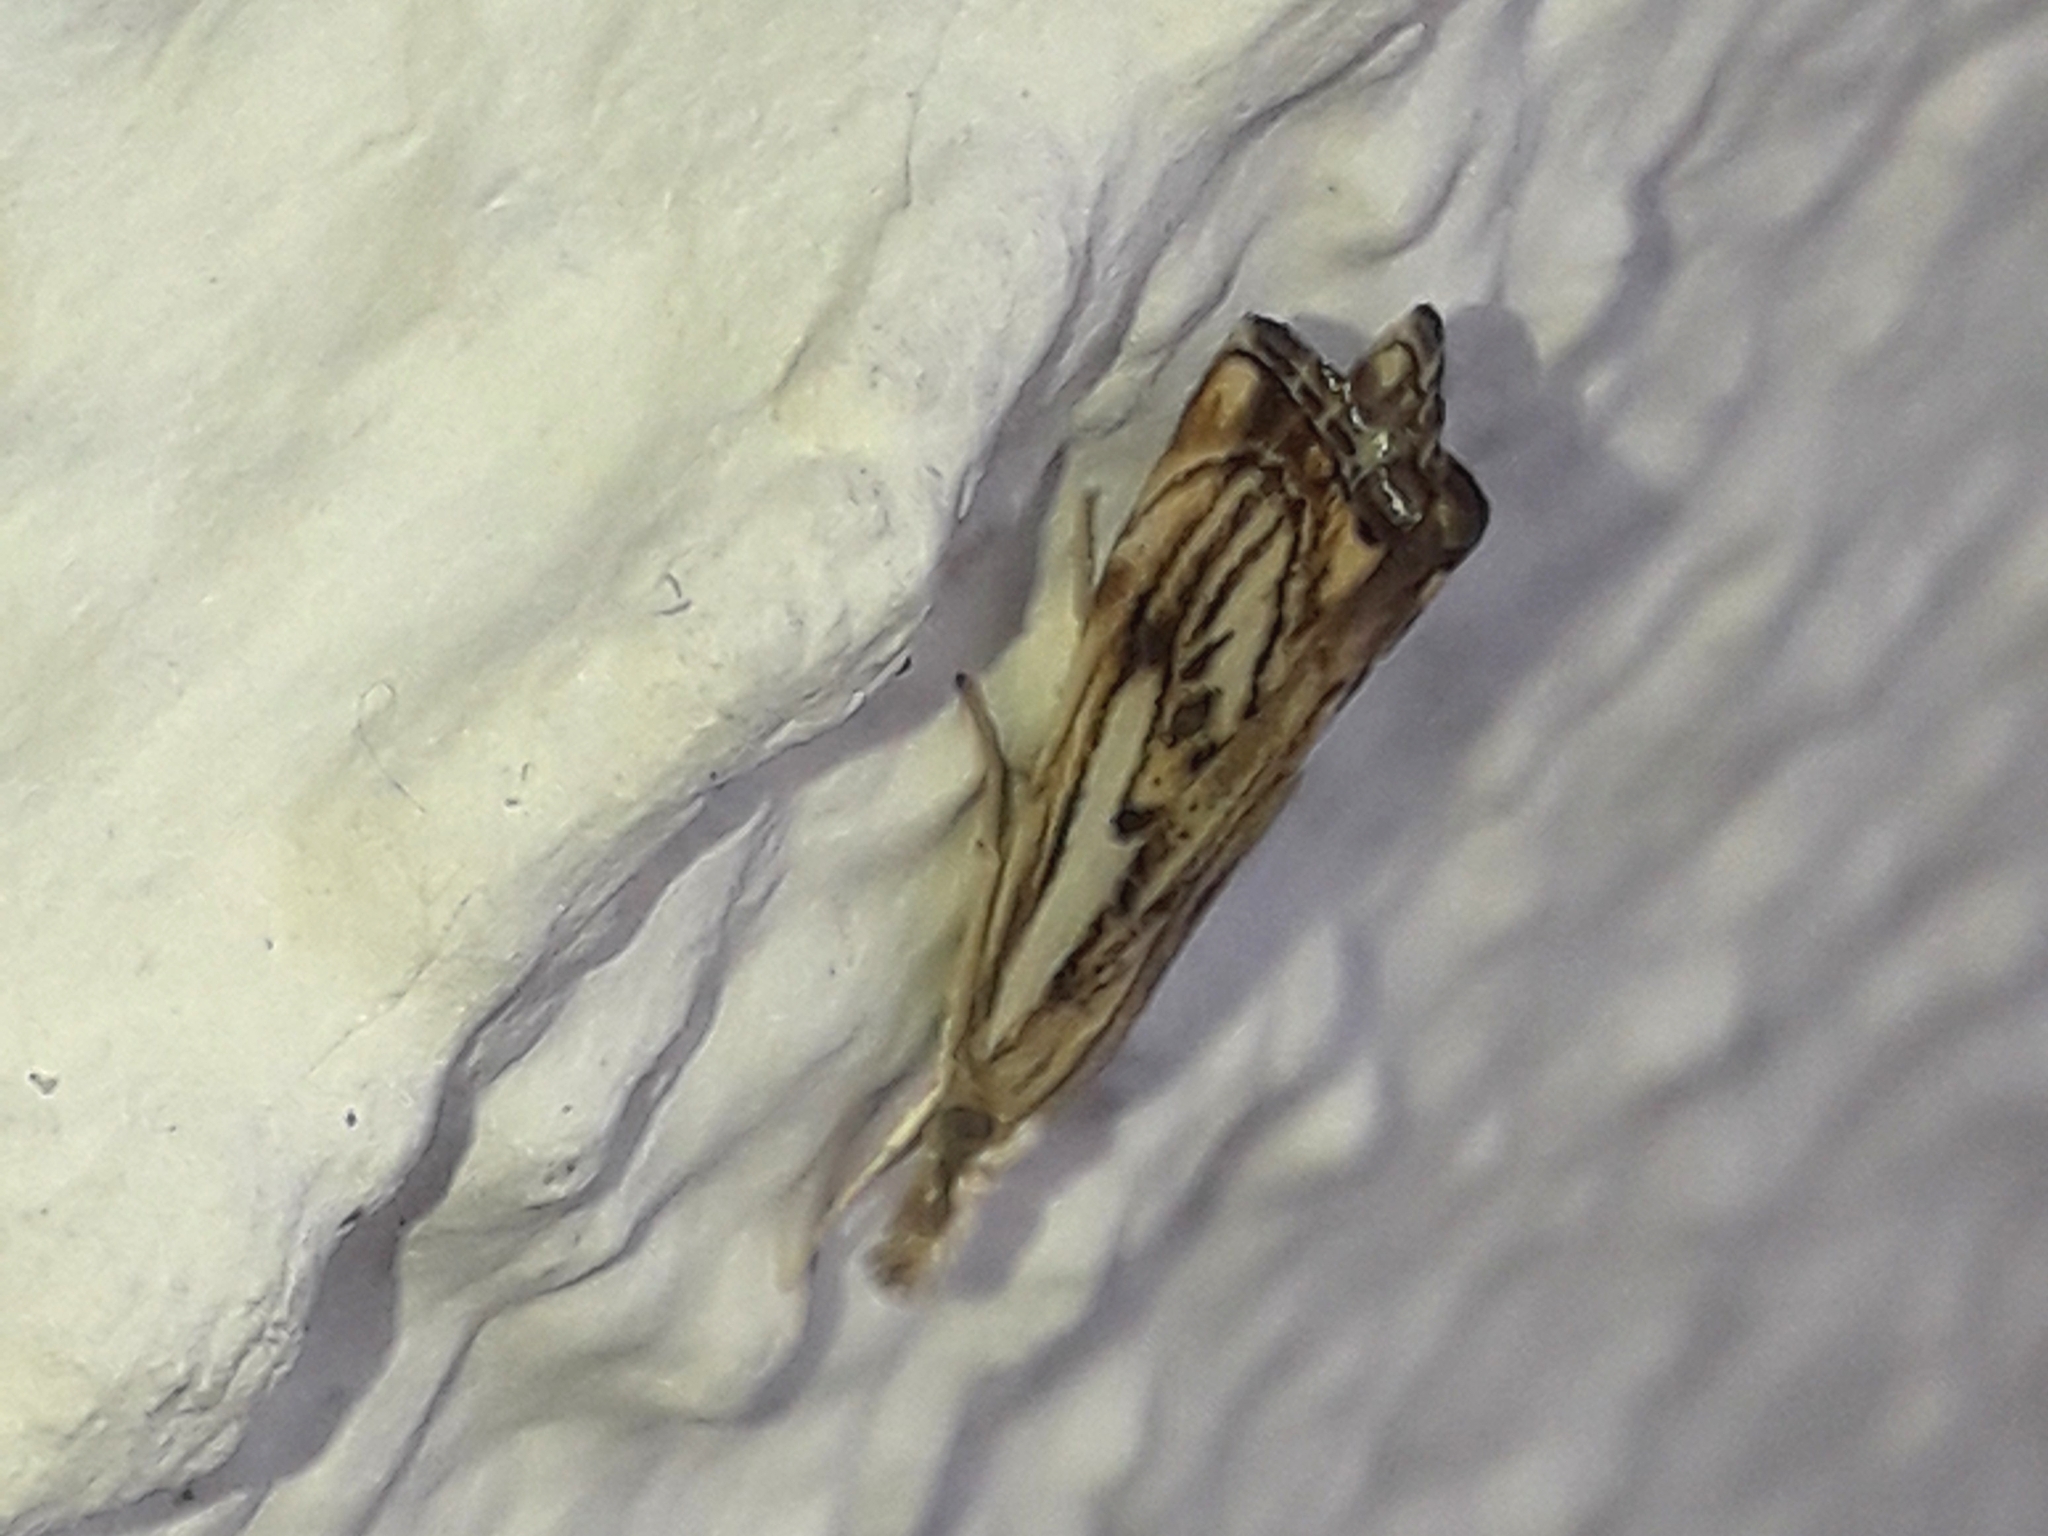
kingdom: Animalia
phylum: Arthropoda
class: Insecta
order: Lepidoptera
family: Crambidae
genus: Catoptria
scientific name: Catoptria falsella
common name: Chequered grass-veneer
